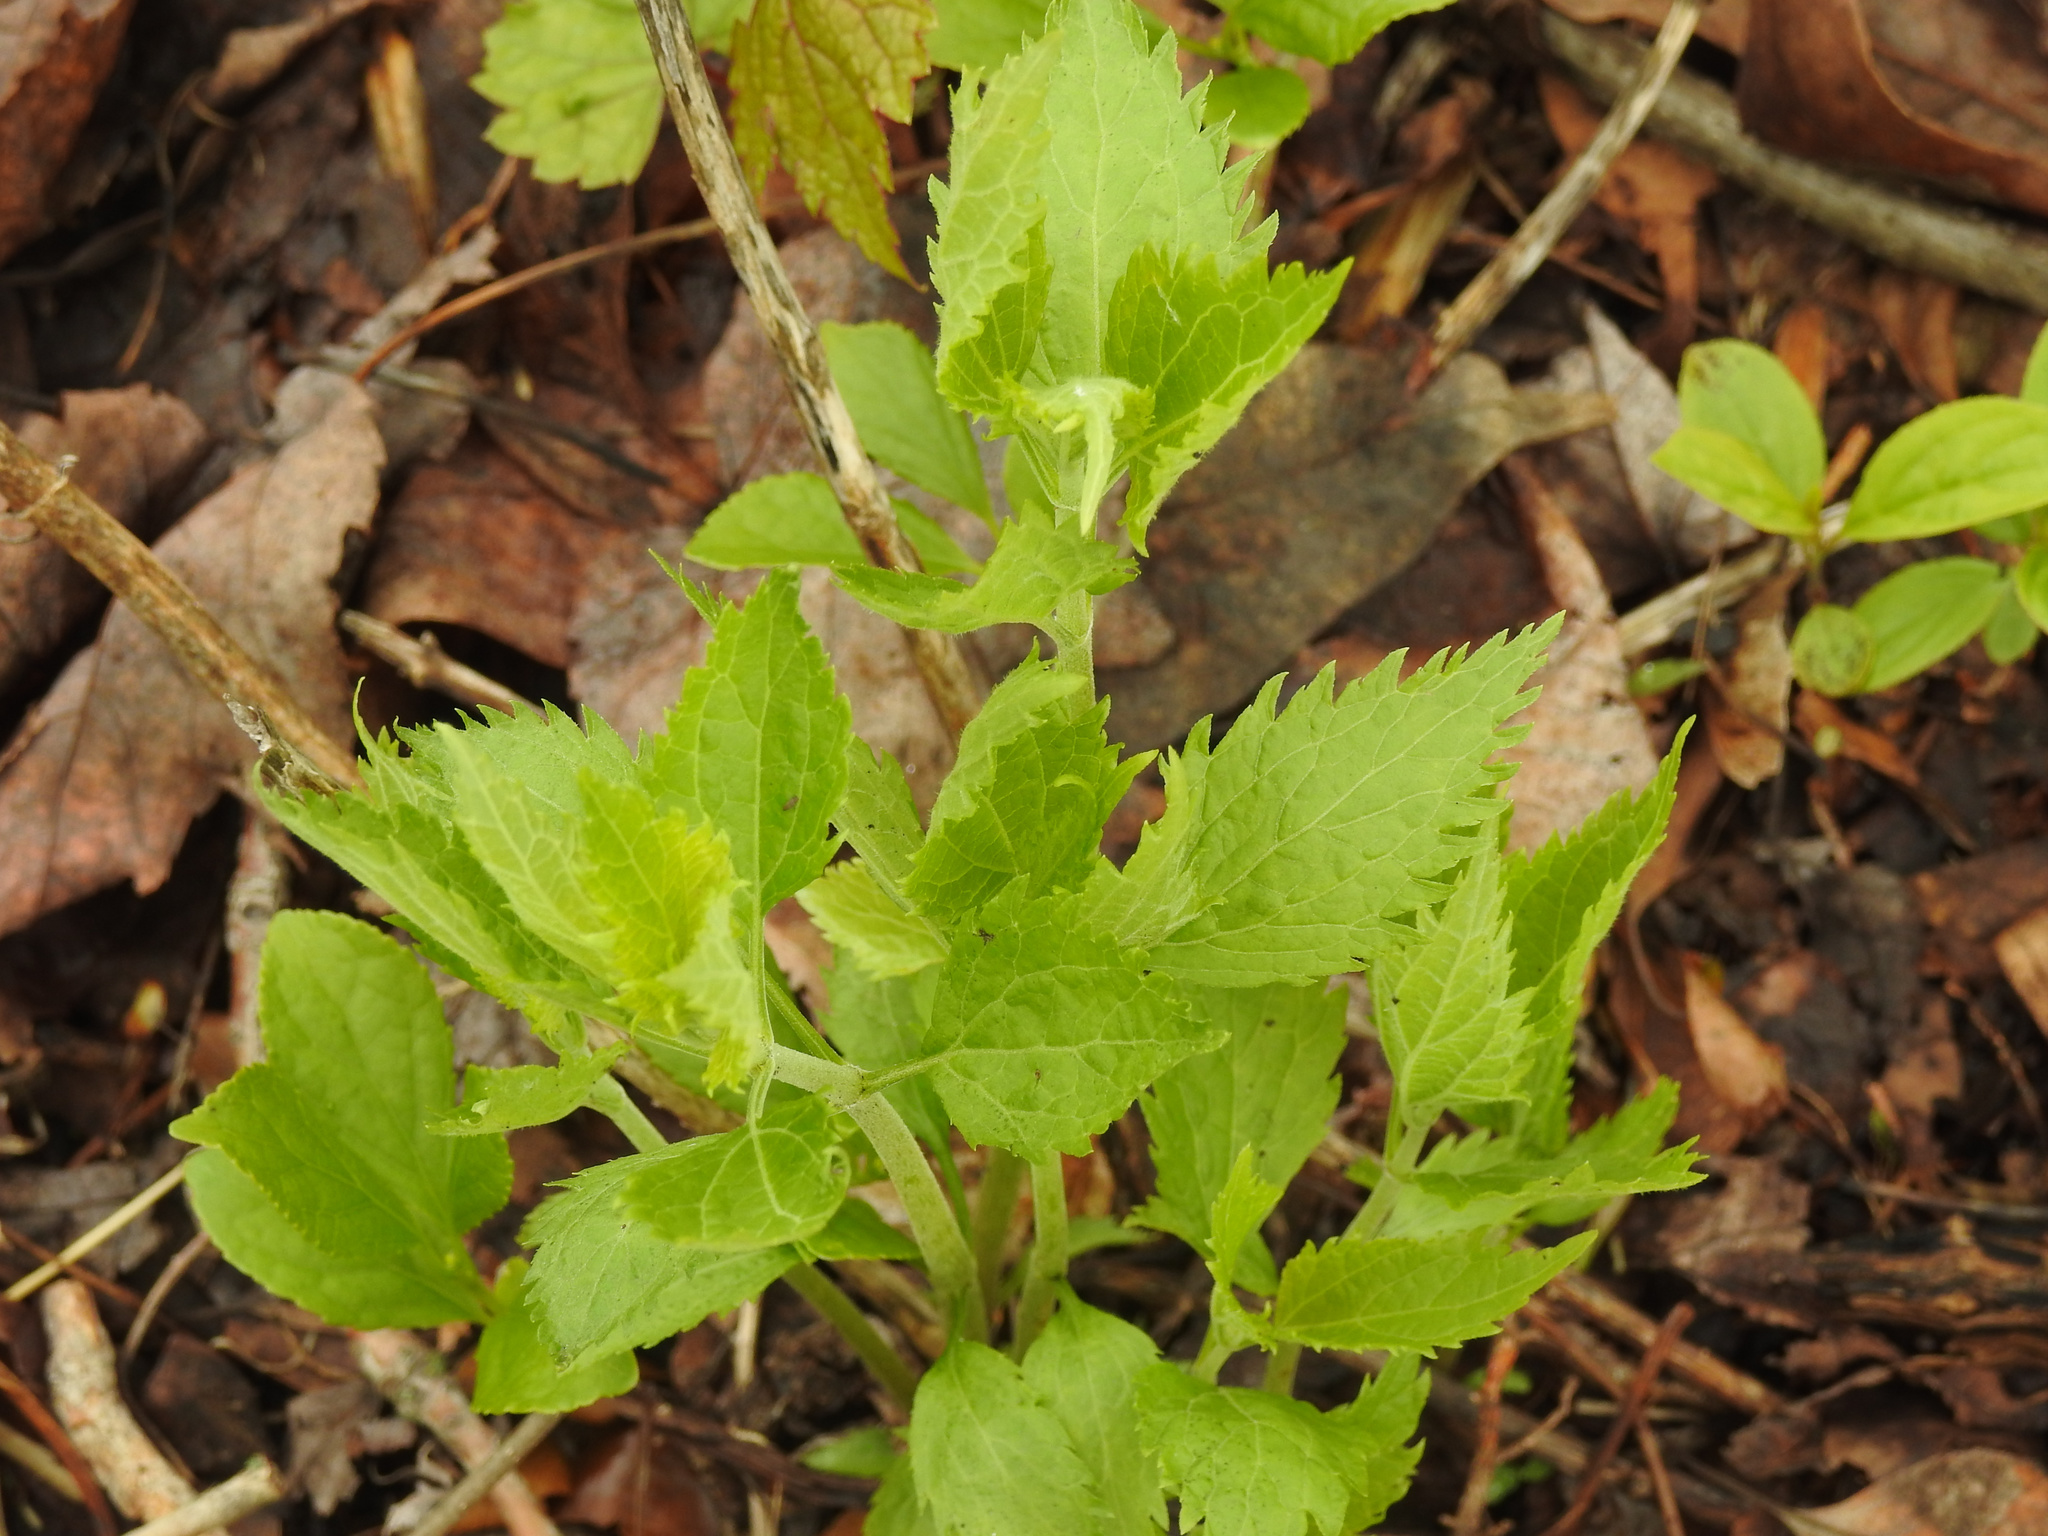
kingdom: Plantae
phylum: Tracheophyta
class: Magnoliopsida
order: Asterales
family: Asteraceae
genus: Ageratina
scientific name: Ageratina altissima
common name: White snakeroot
